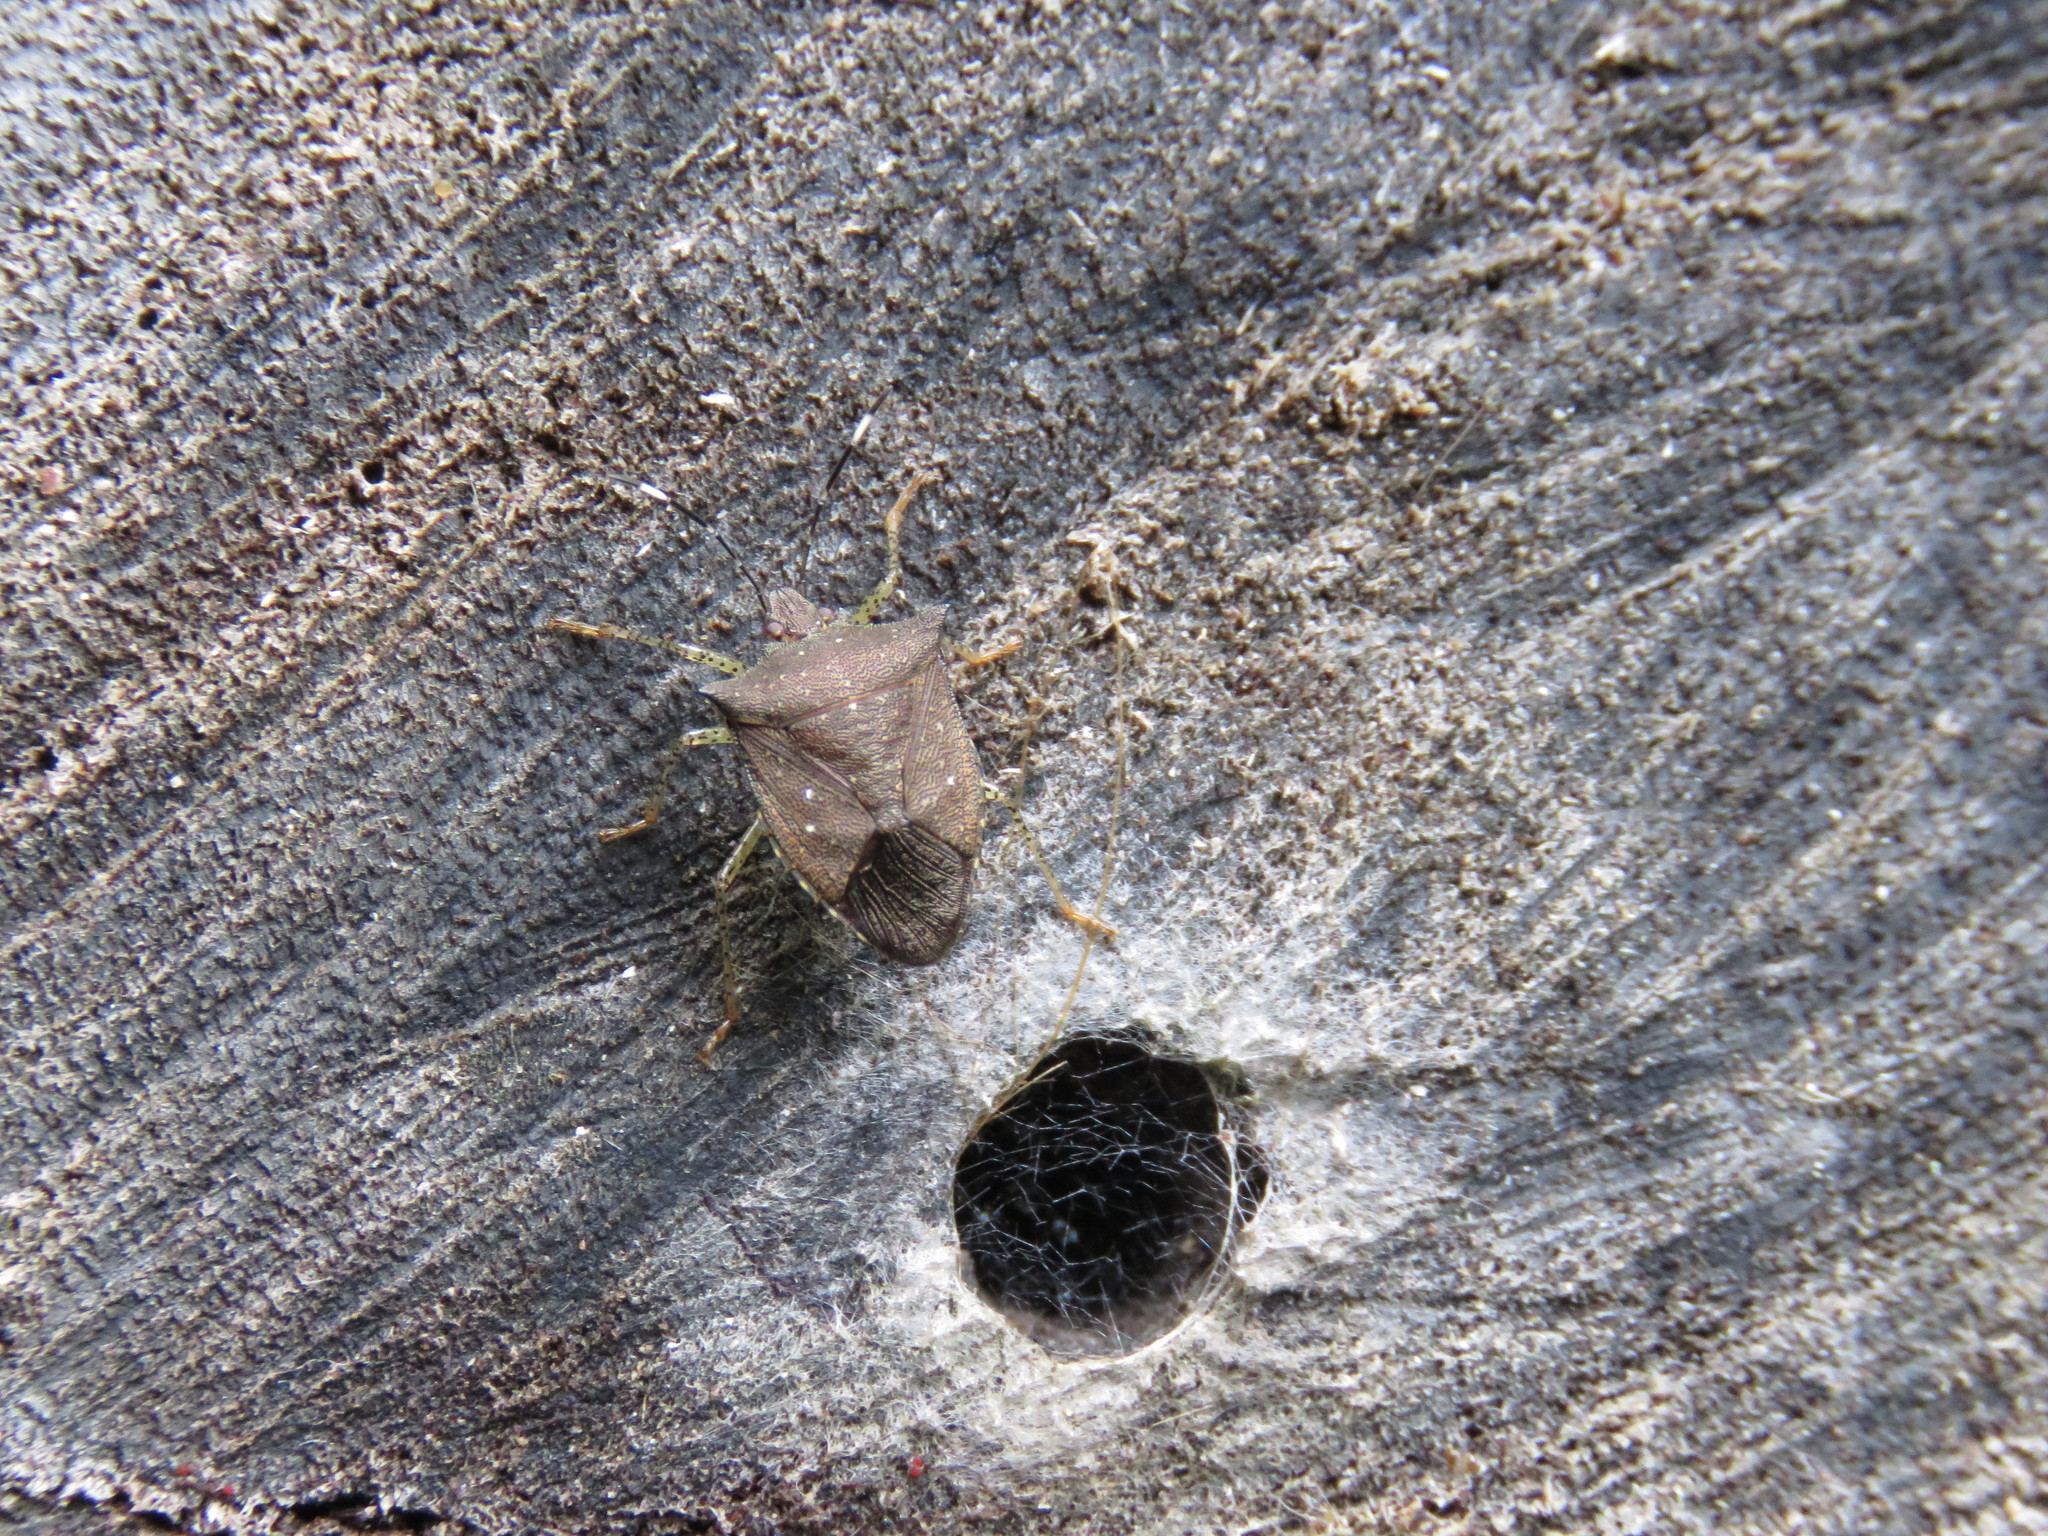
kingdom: Animalia
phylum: Arthropoda
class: Insecta
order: Hemiptera
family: Pentatomidae
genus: Mitripus
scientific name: Mitripus acutus
